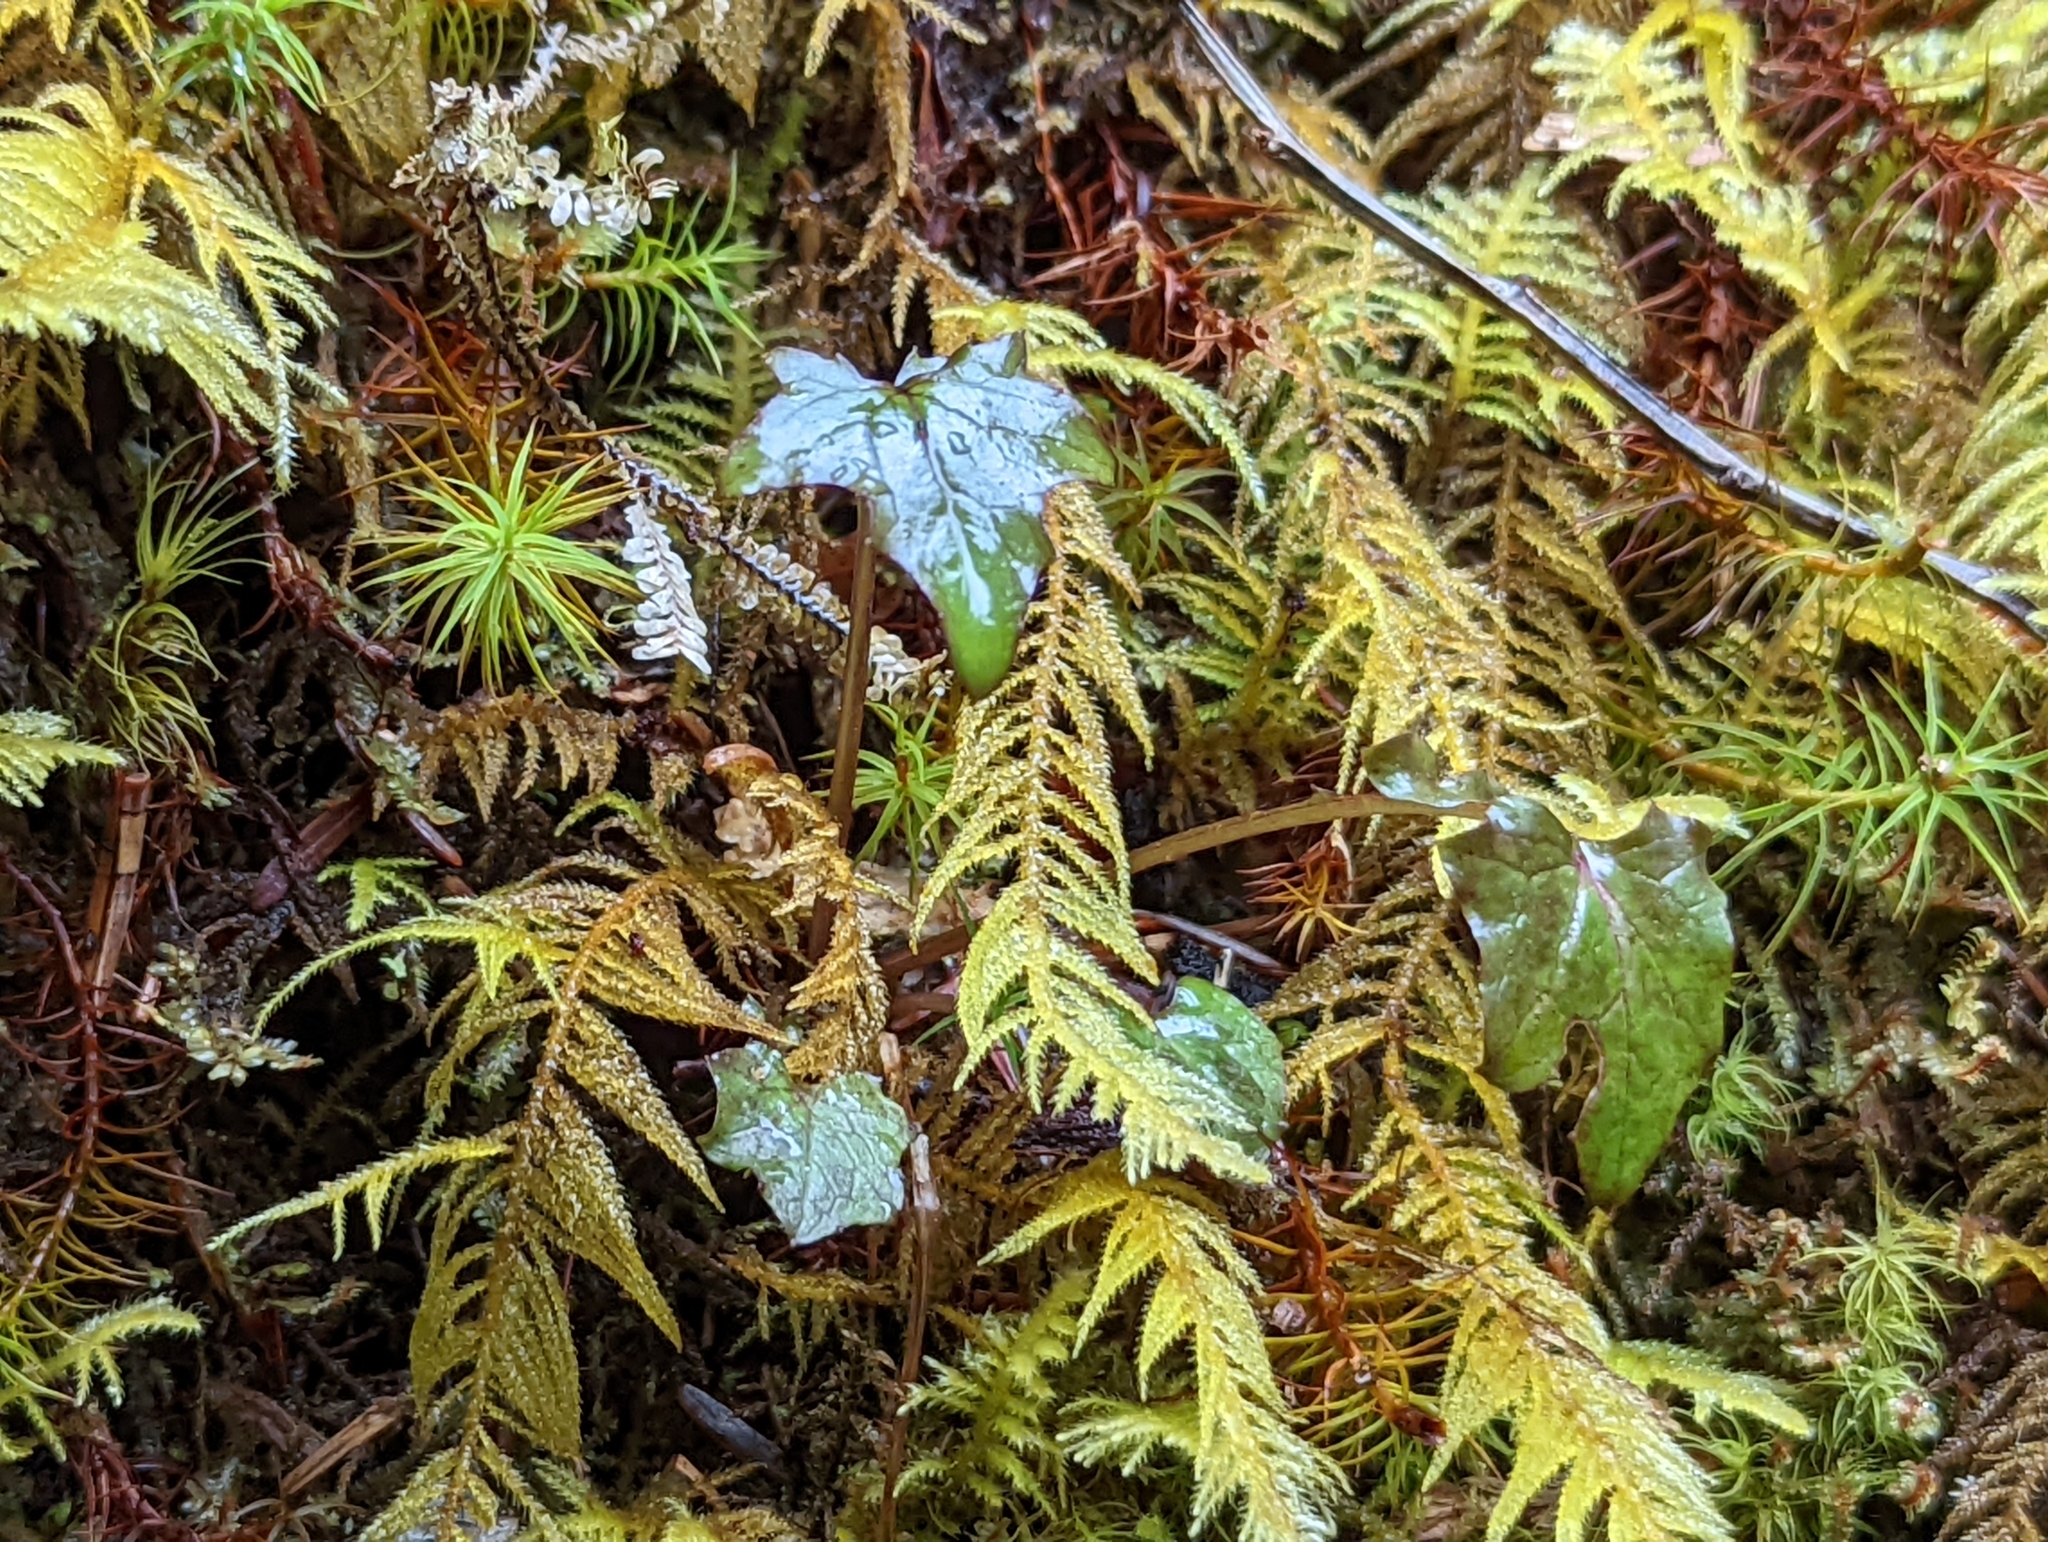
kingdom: Plantae
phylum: Tracheophyta
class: Magnoliopsida
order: Asterales
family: Asteraceae
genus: Mycelis
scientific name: Mycelis muralis
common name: Wall lettuce
